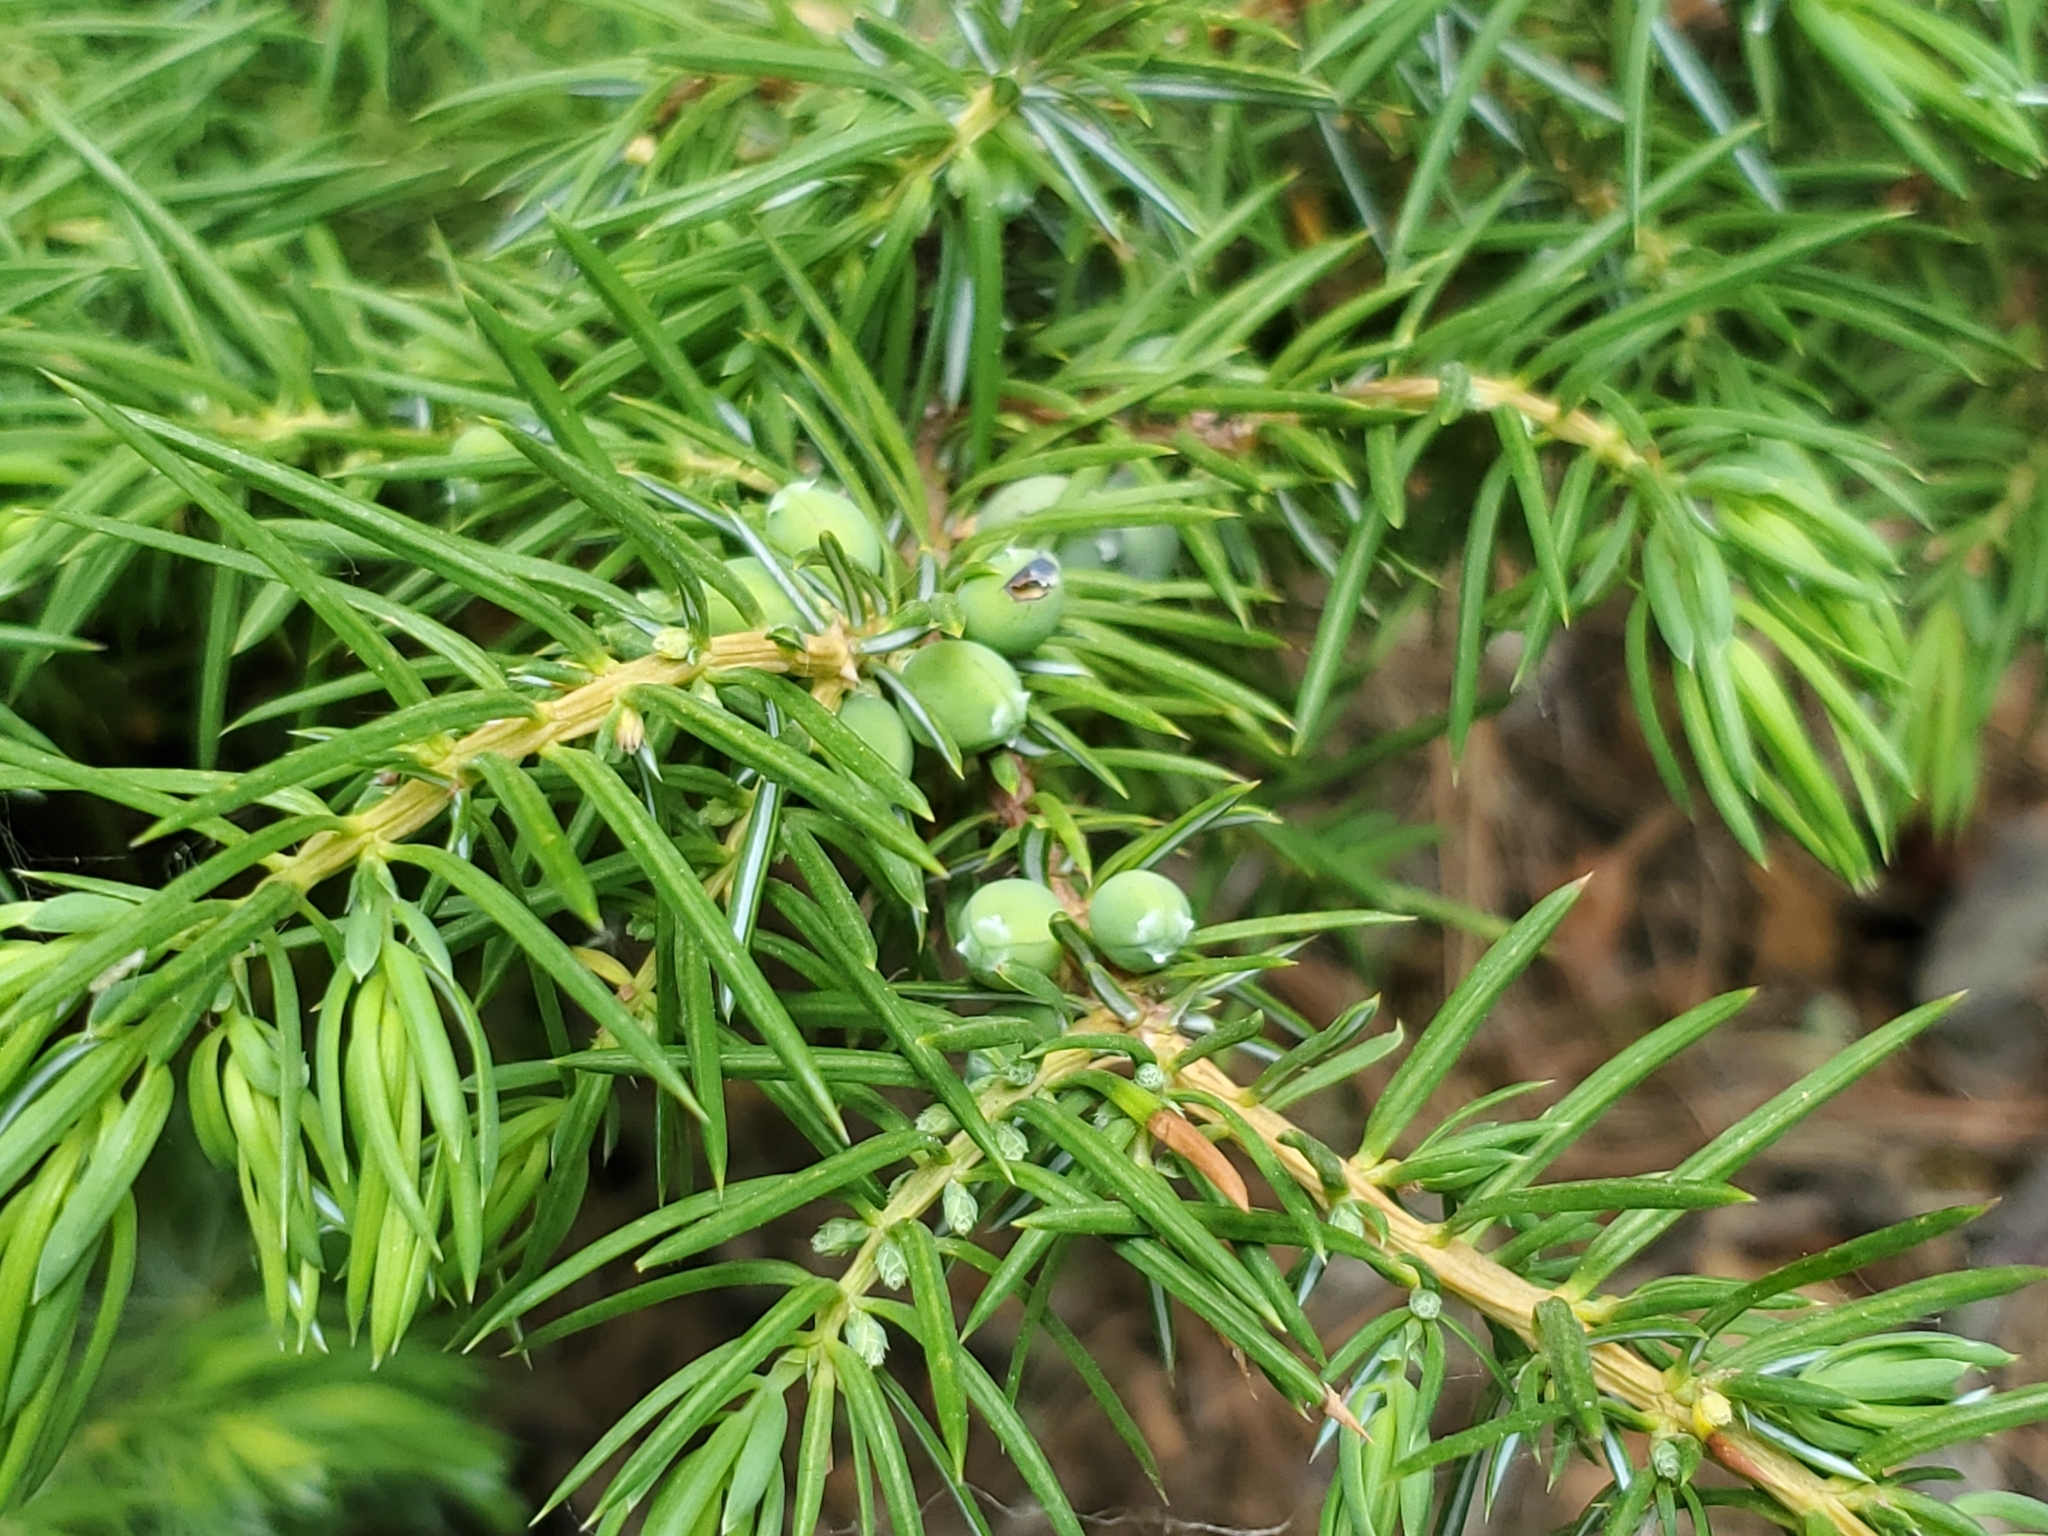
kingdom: Plantae
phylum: Tracheophyta
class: Pinopsida
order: Pinales
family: Cupressaceae
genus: Juniperus
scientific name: Juniperus communis
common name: Common juniper
